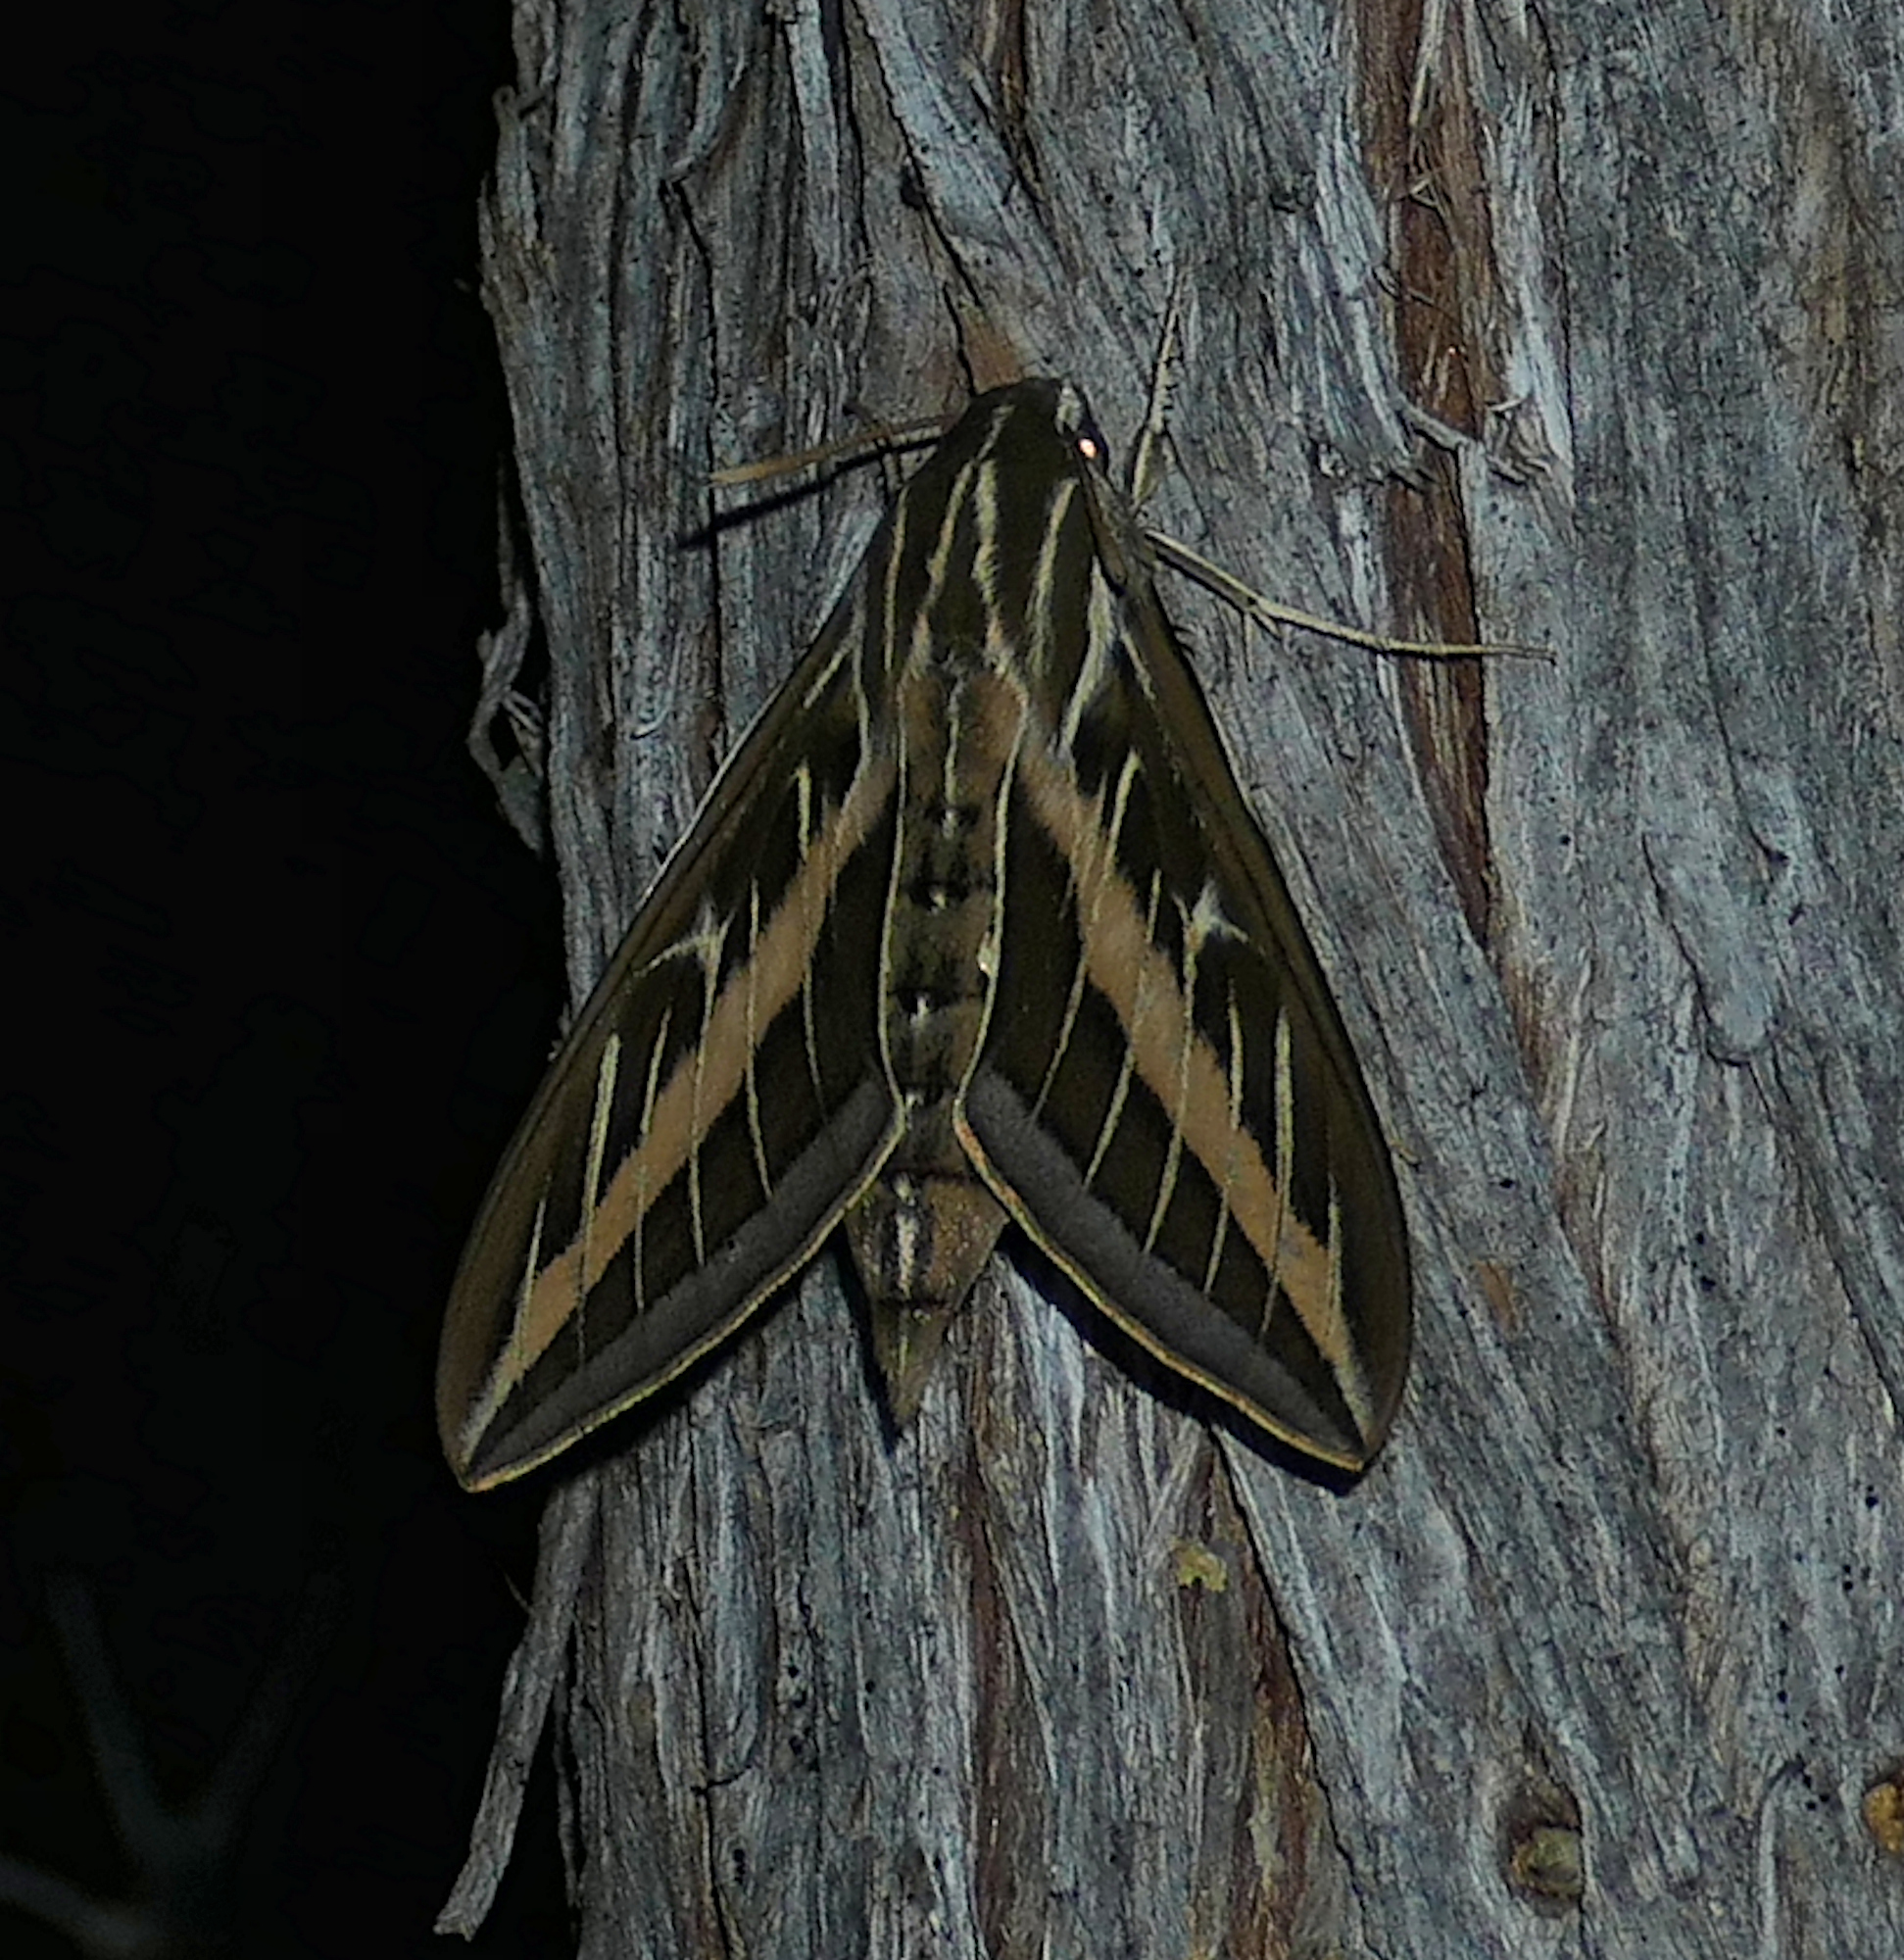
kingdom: Animalia
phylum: Arthropoda
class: Insecta
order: Lepidoptera
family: Sphingidae
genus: Hyles
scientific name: Hyles lineata
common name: White-lined sphinx
